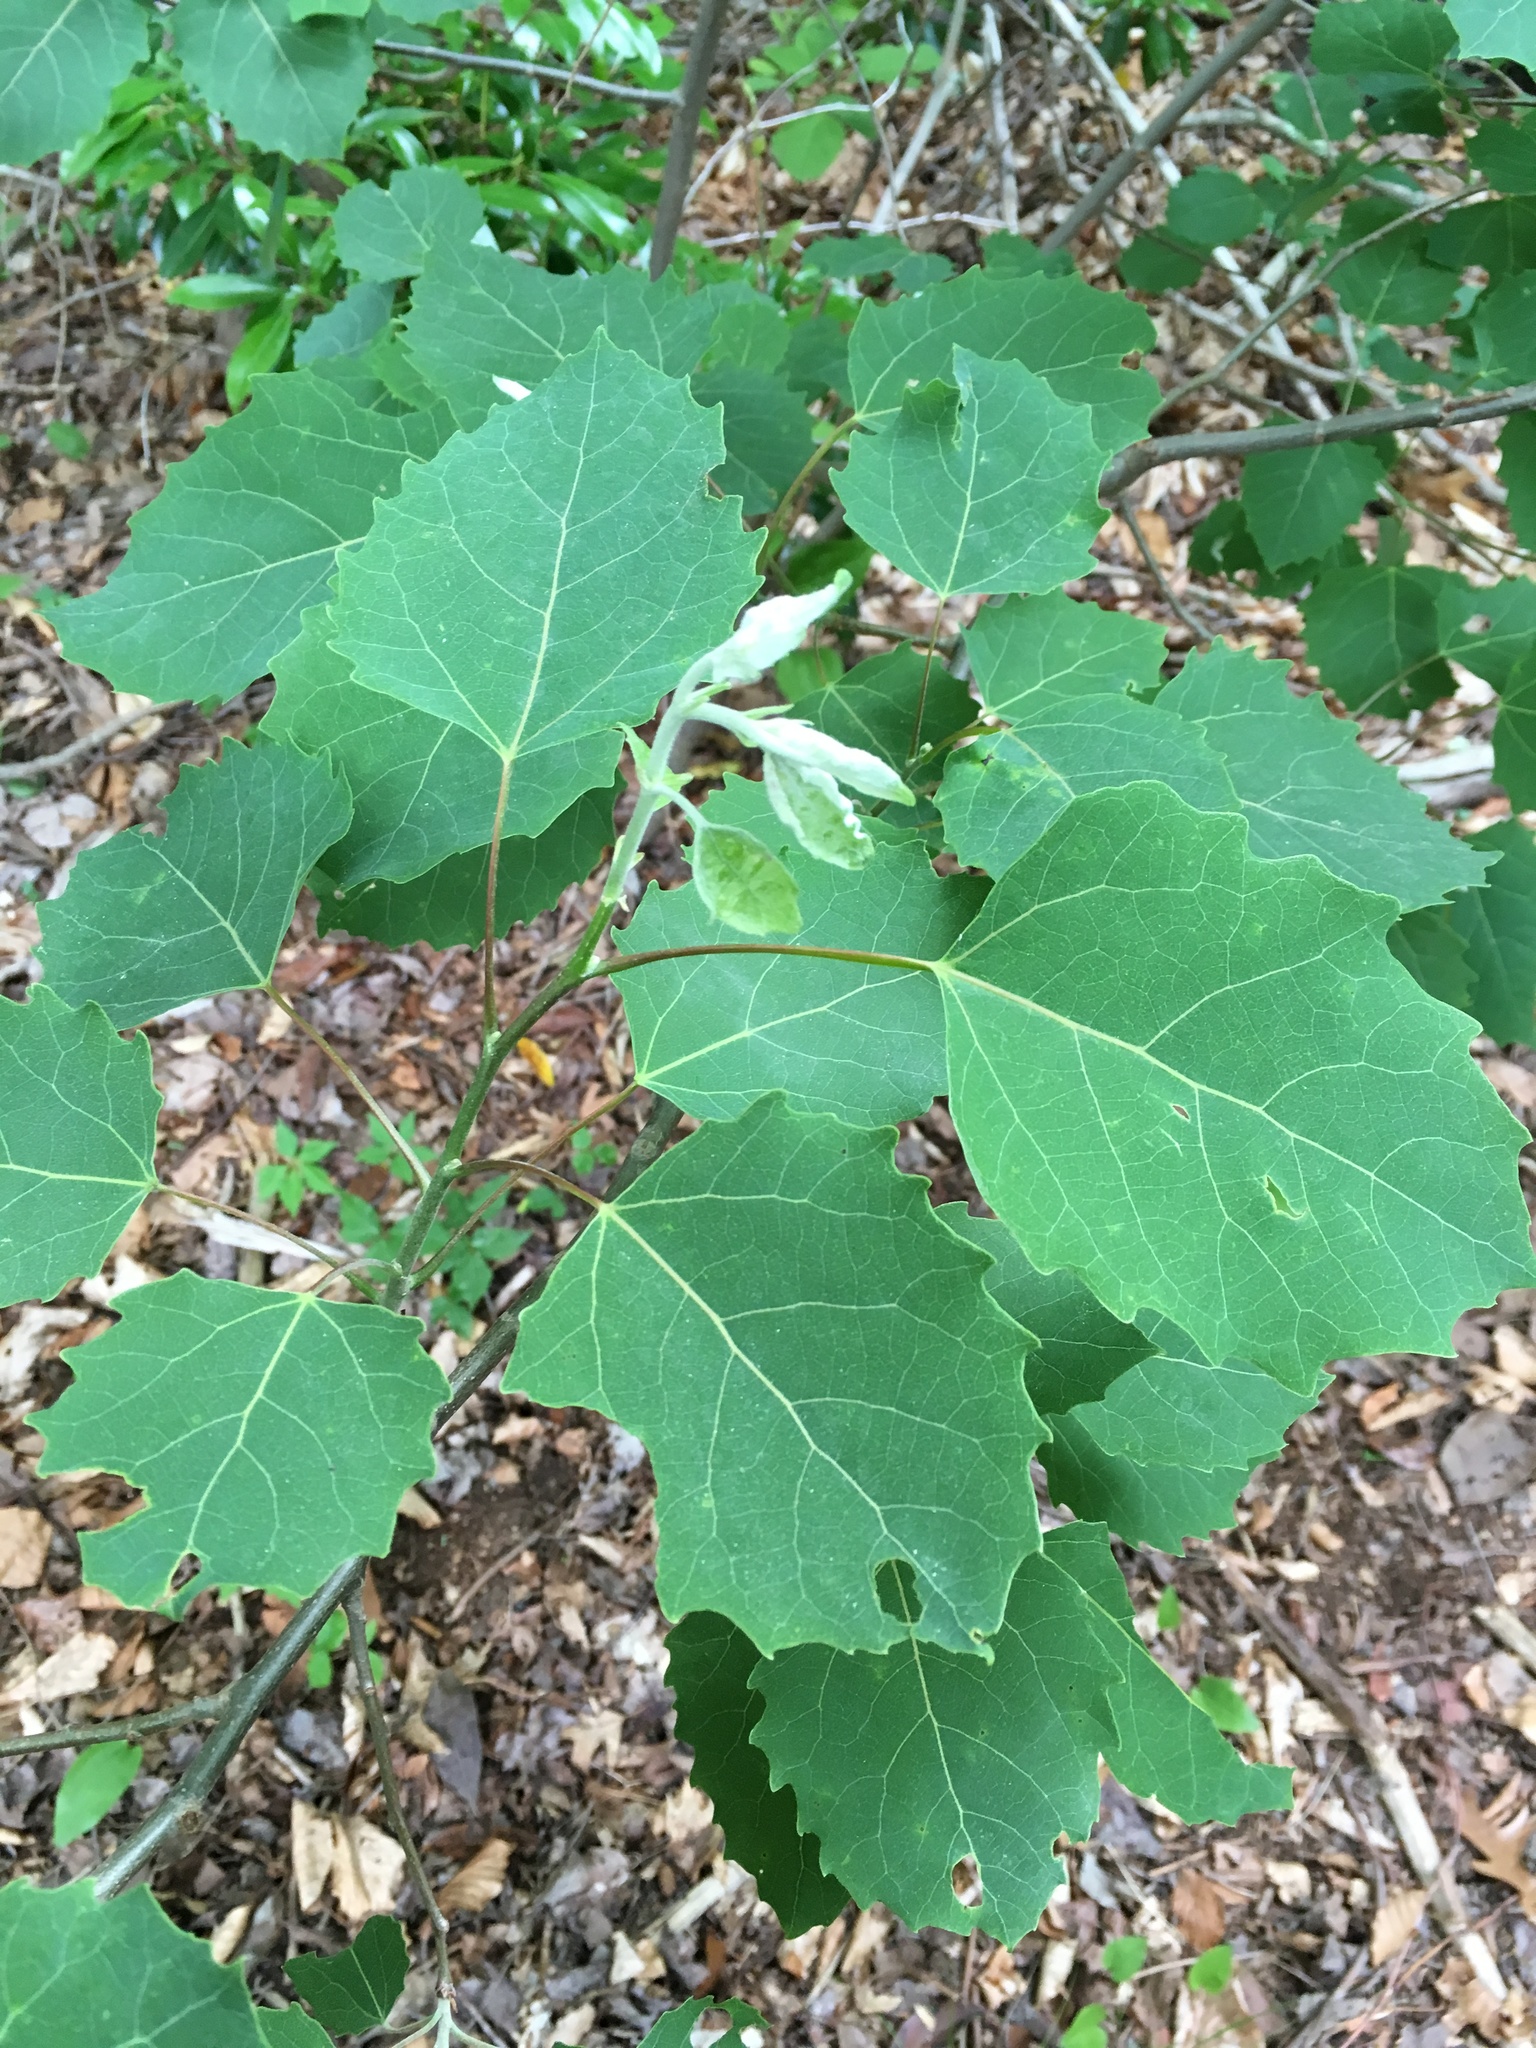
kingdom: Plantae
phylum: Tracheophyta
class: Magnoliopsida
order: Malpighiales
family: Salicaceae
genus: Populus
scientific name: Populus grandidentata
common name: Bigtooth aspen
